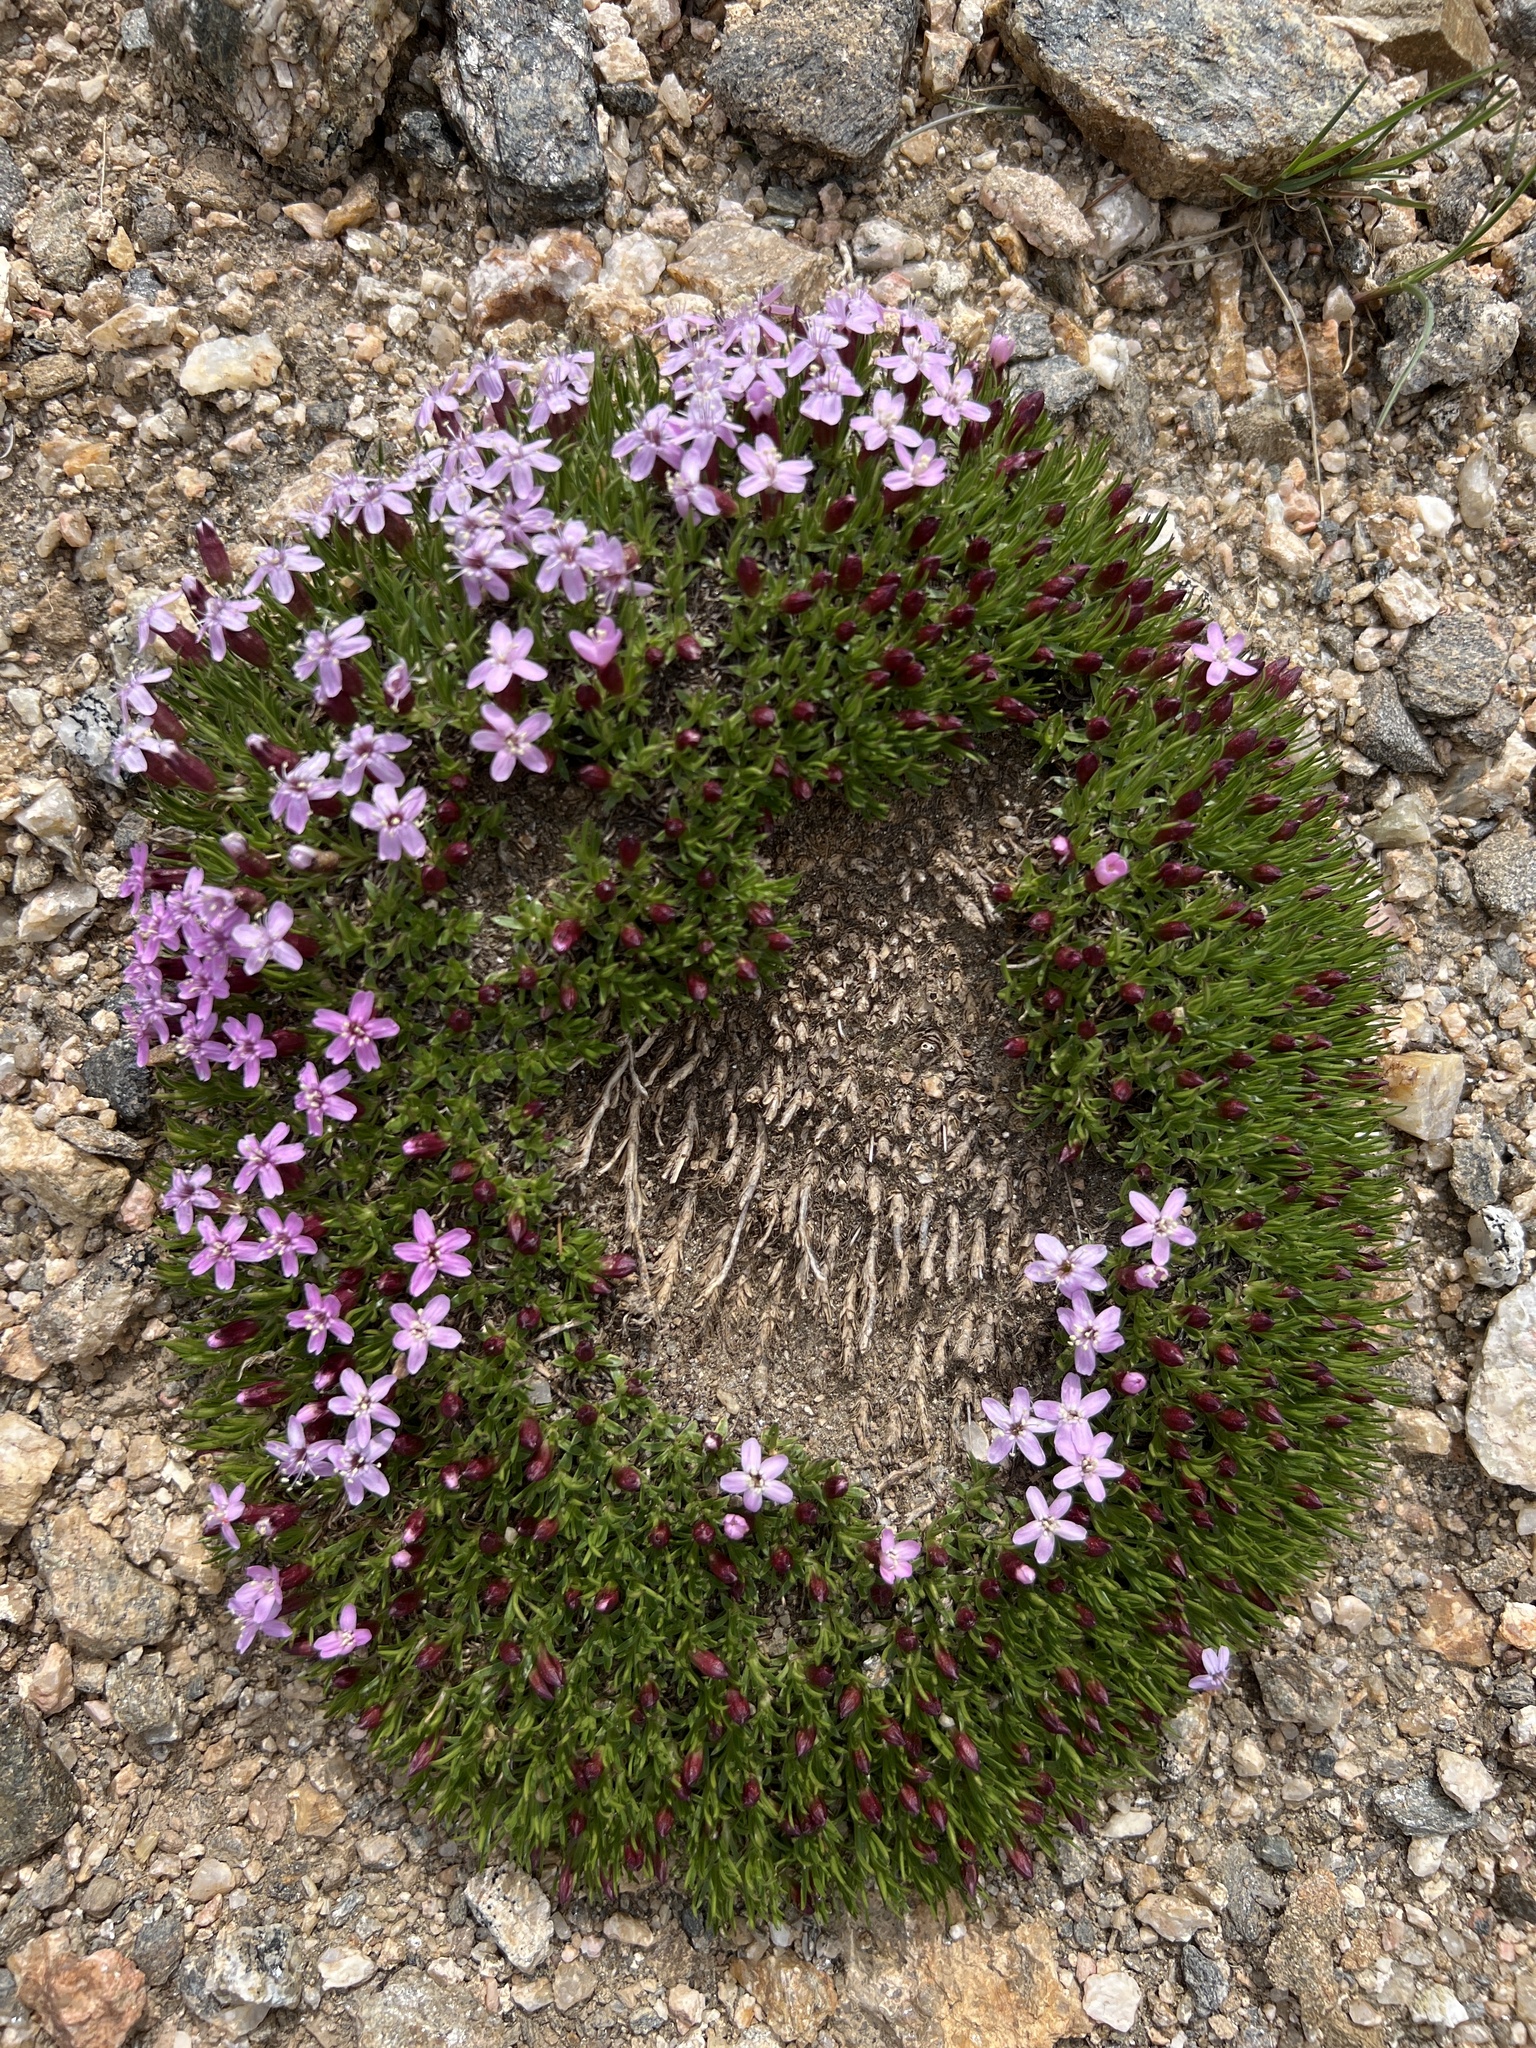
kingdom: Plantae
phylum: Tracheophyta
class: Magnoliopsida
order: Caryophyllales
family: Caryophyllaceae
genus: Silene
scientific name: Silene acaulis
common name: Moss campion
